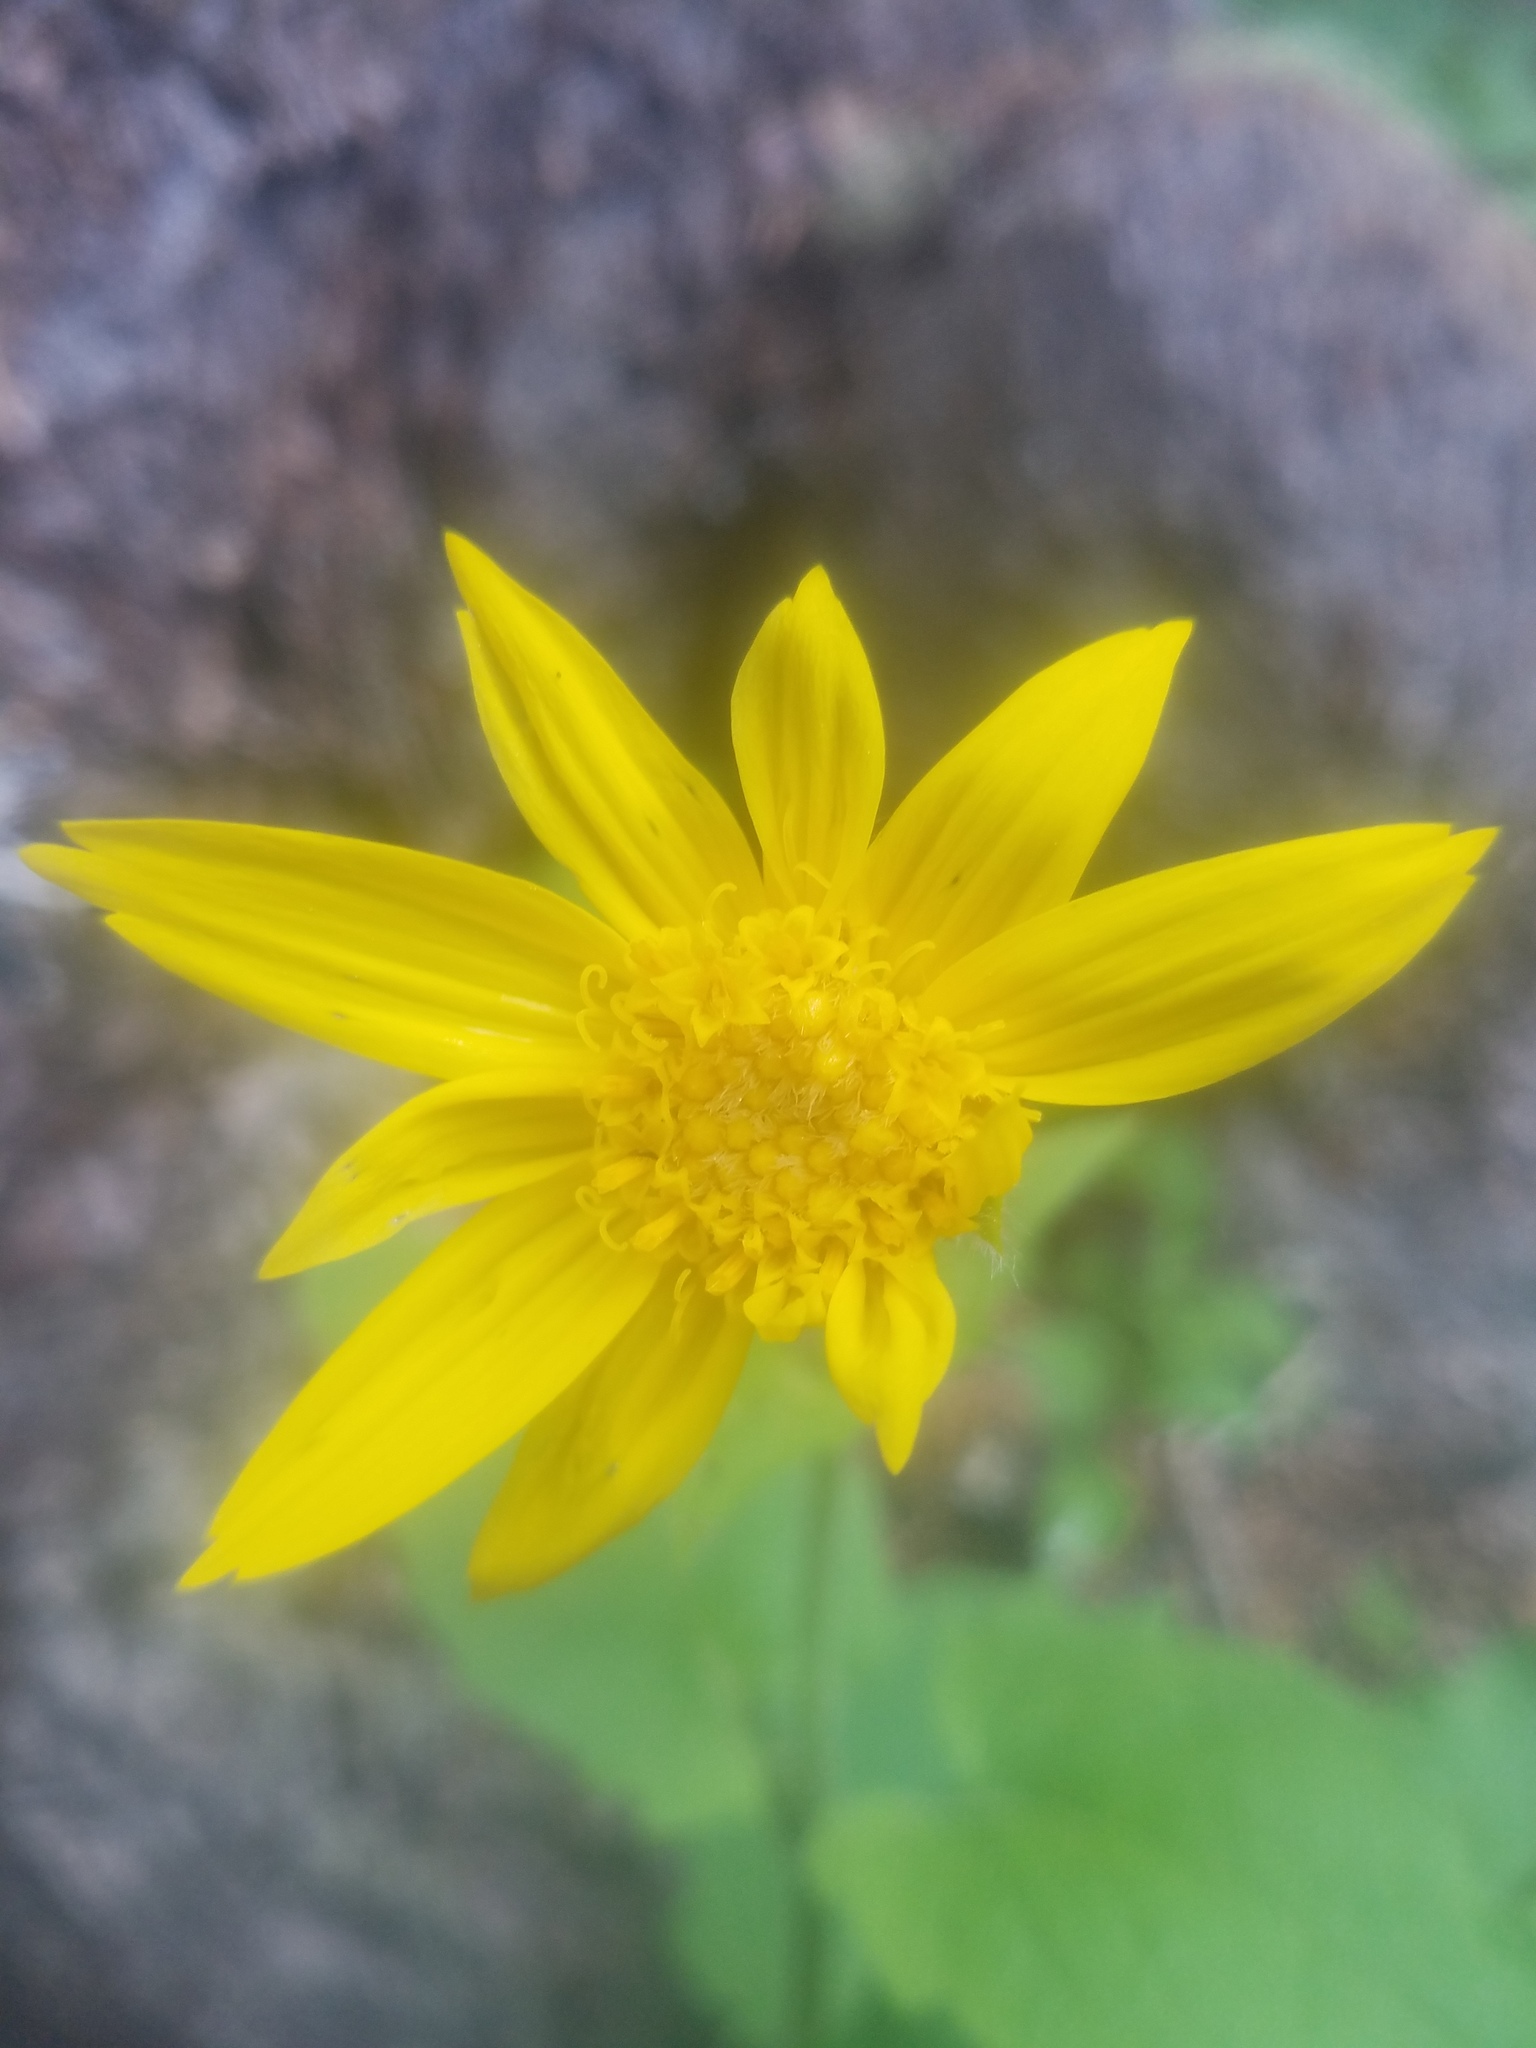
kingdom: Plantae
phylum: Tracheophyta
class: Magnoliopsida
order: Asterales
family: Asteraceae
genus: Arnica
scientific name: Arnica cordifolia
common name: Heart-leaf arnica
